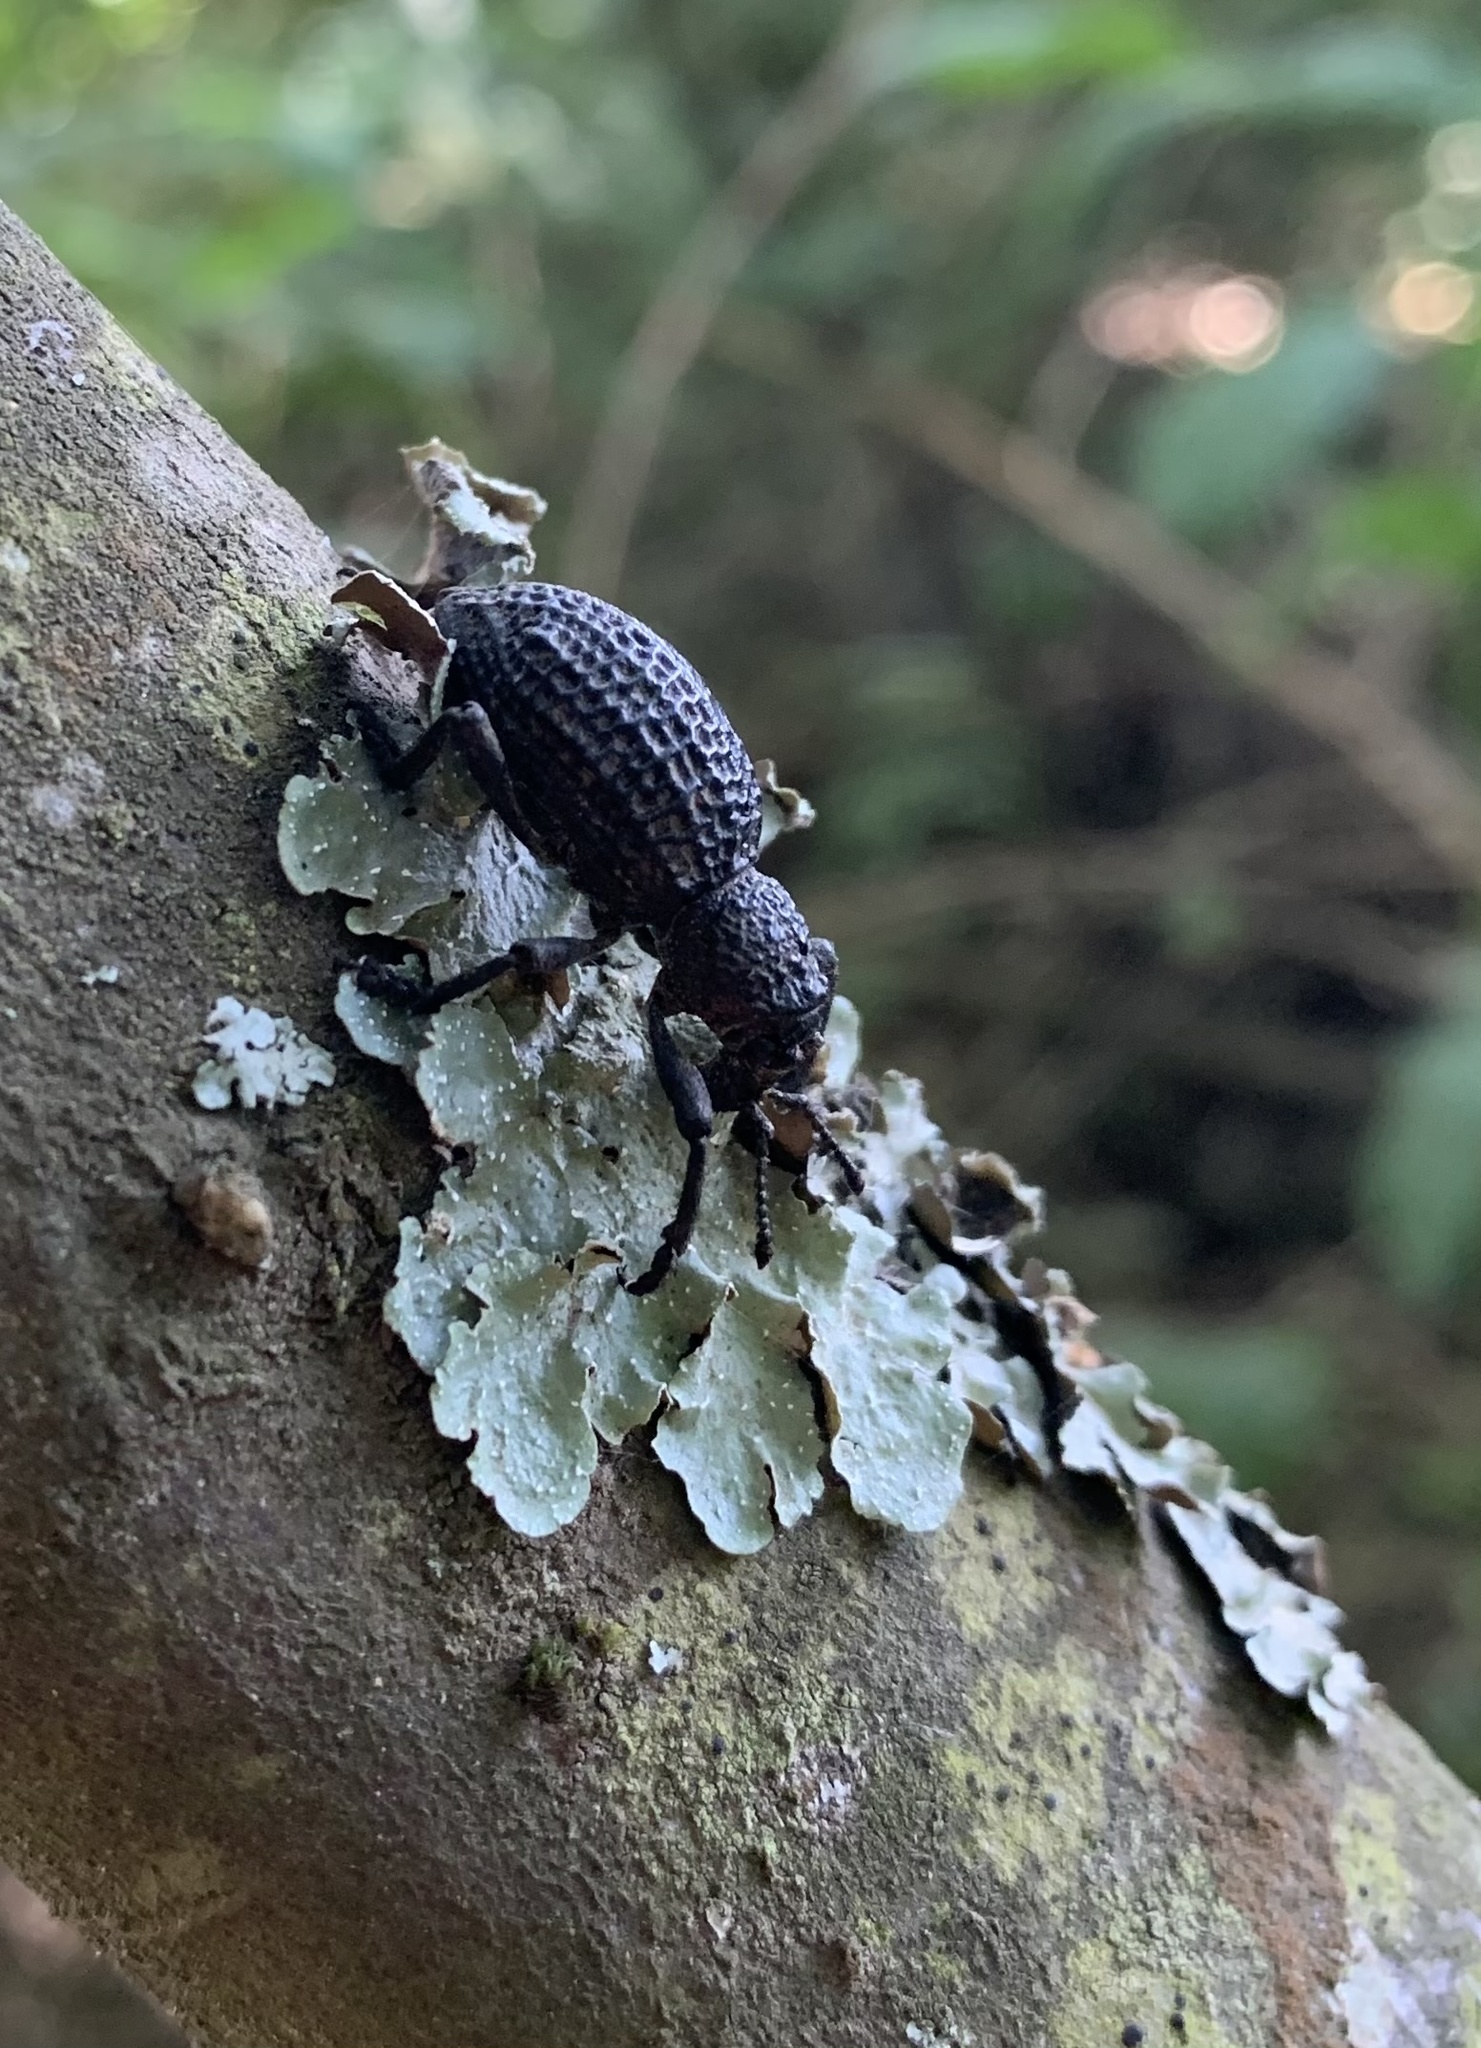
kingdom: Animalia
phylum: Arthropoda
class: Insecta
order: Coleoptera
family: Curculionidae
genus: Aegorhinus
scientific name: Aegorhinus superciliosus
